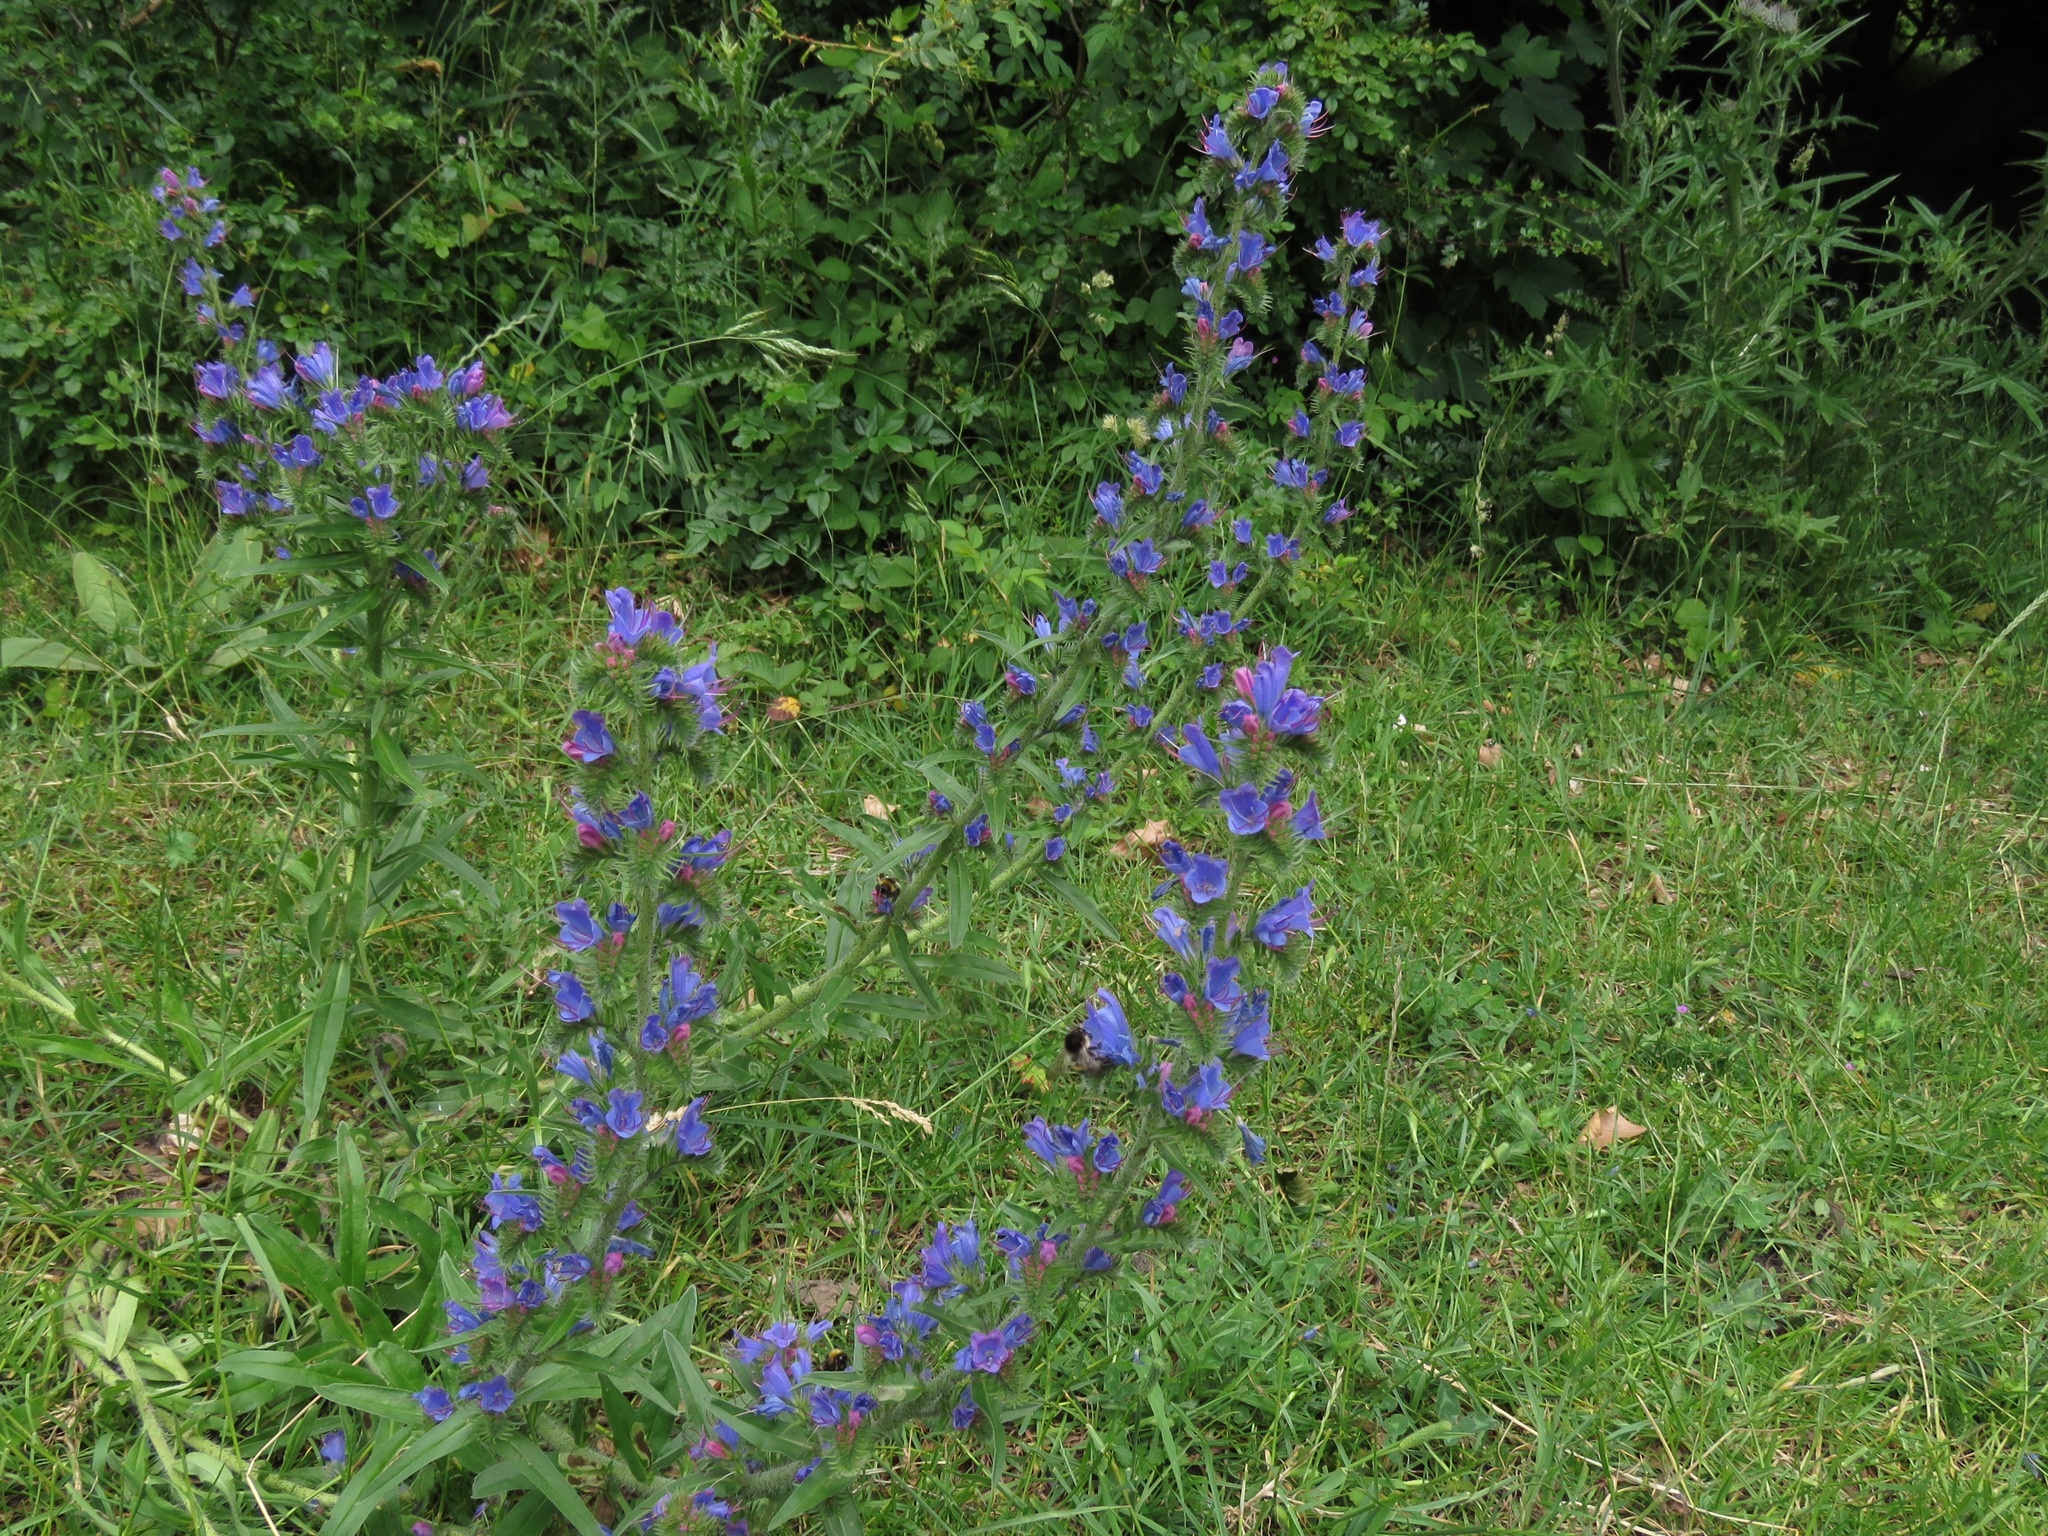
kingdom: Plantae
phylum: Tracheophyta
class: Magnoliopsida
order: Boraginales
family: Boraginaceae
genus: Echium
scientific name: Echium vulgare
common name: Common viper's bugloss
